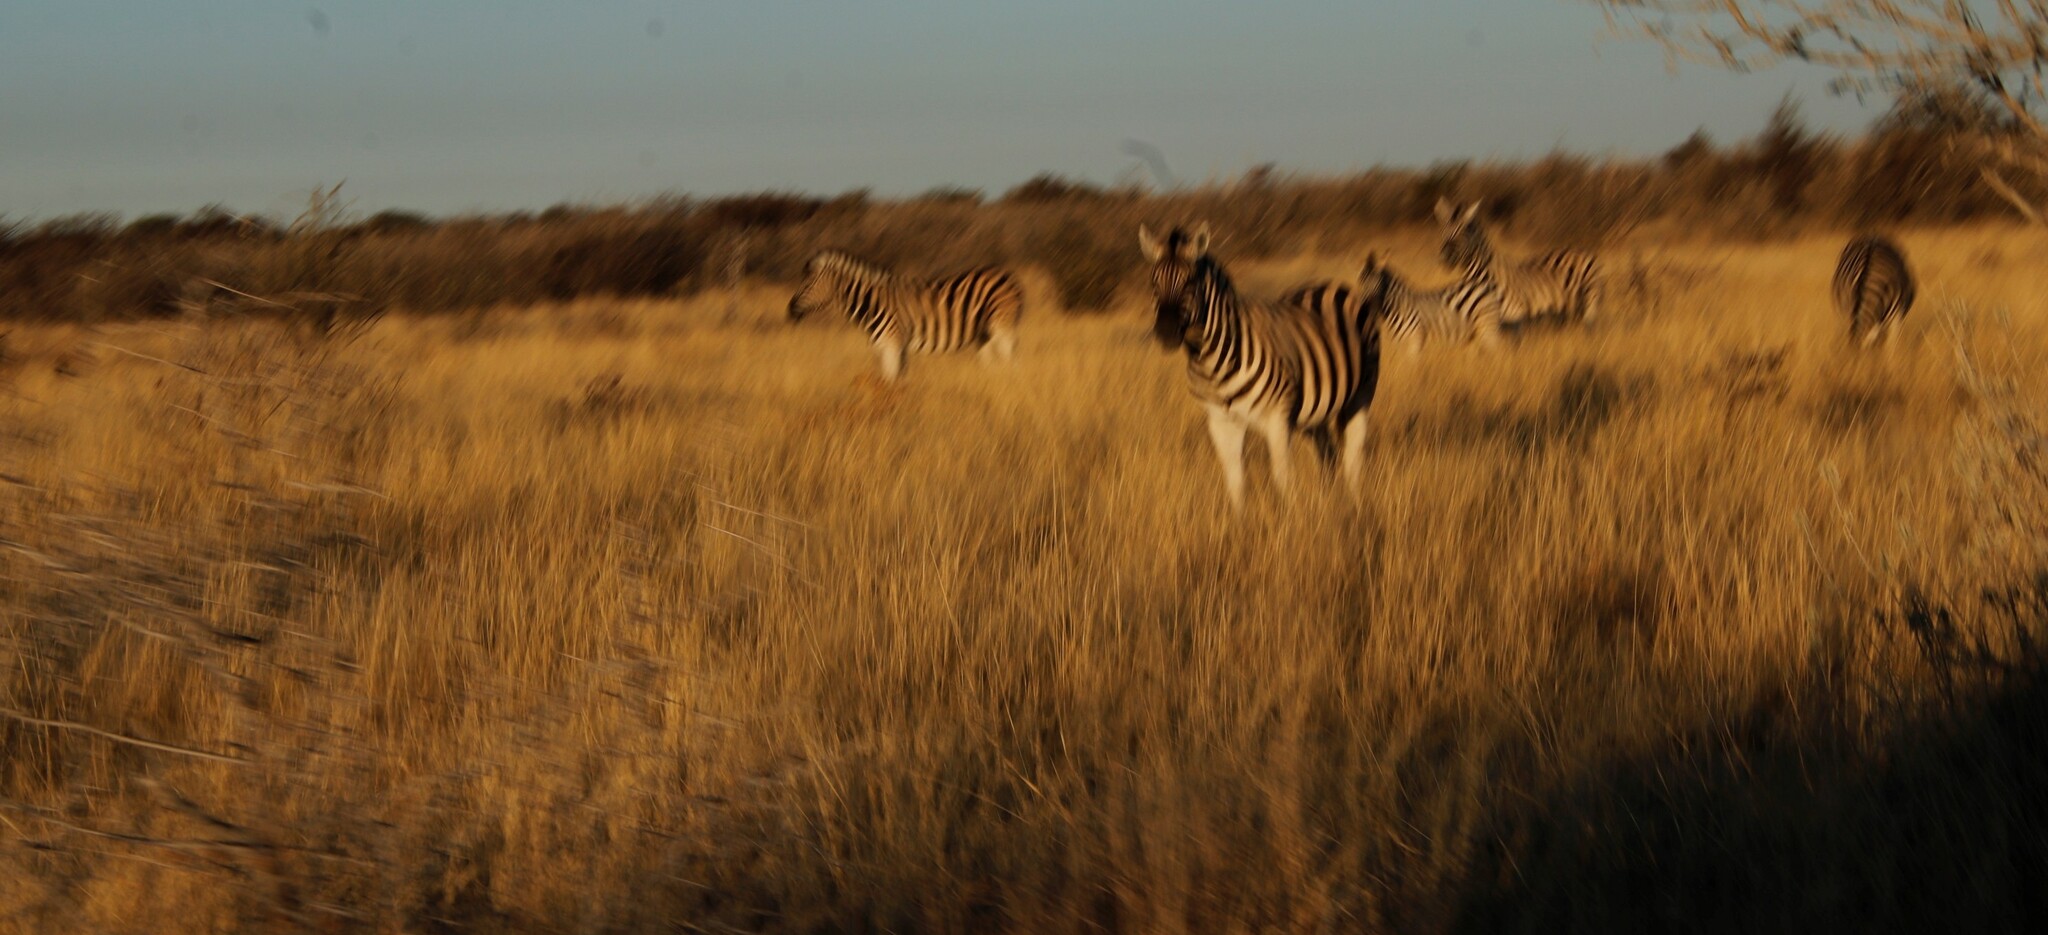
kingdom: Animalia
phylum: Chordata
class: Mammalia
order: Perissodactyla
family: Equidae
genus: Equus
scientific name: Equus quagga
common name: Plains zebra
